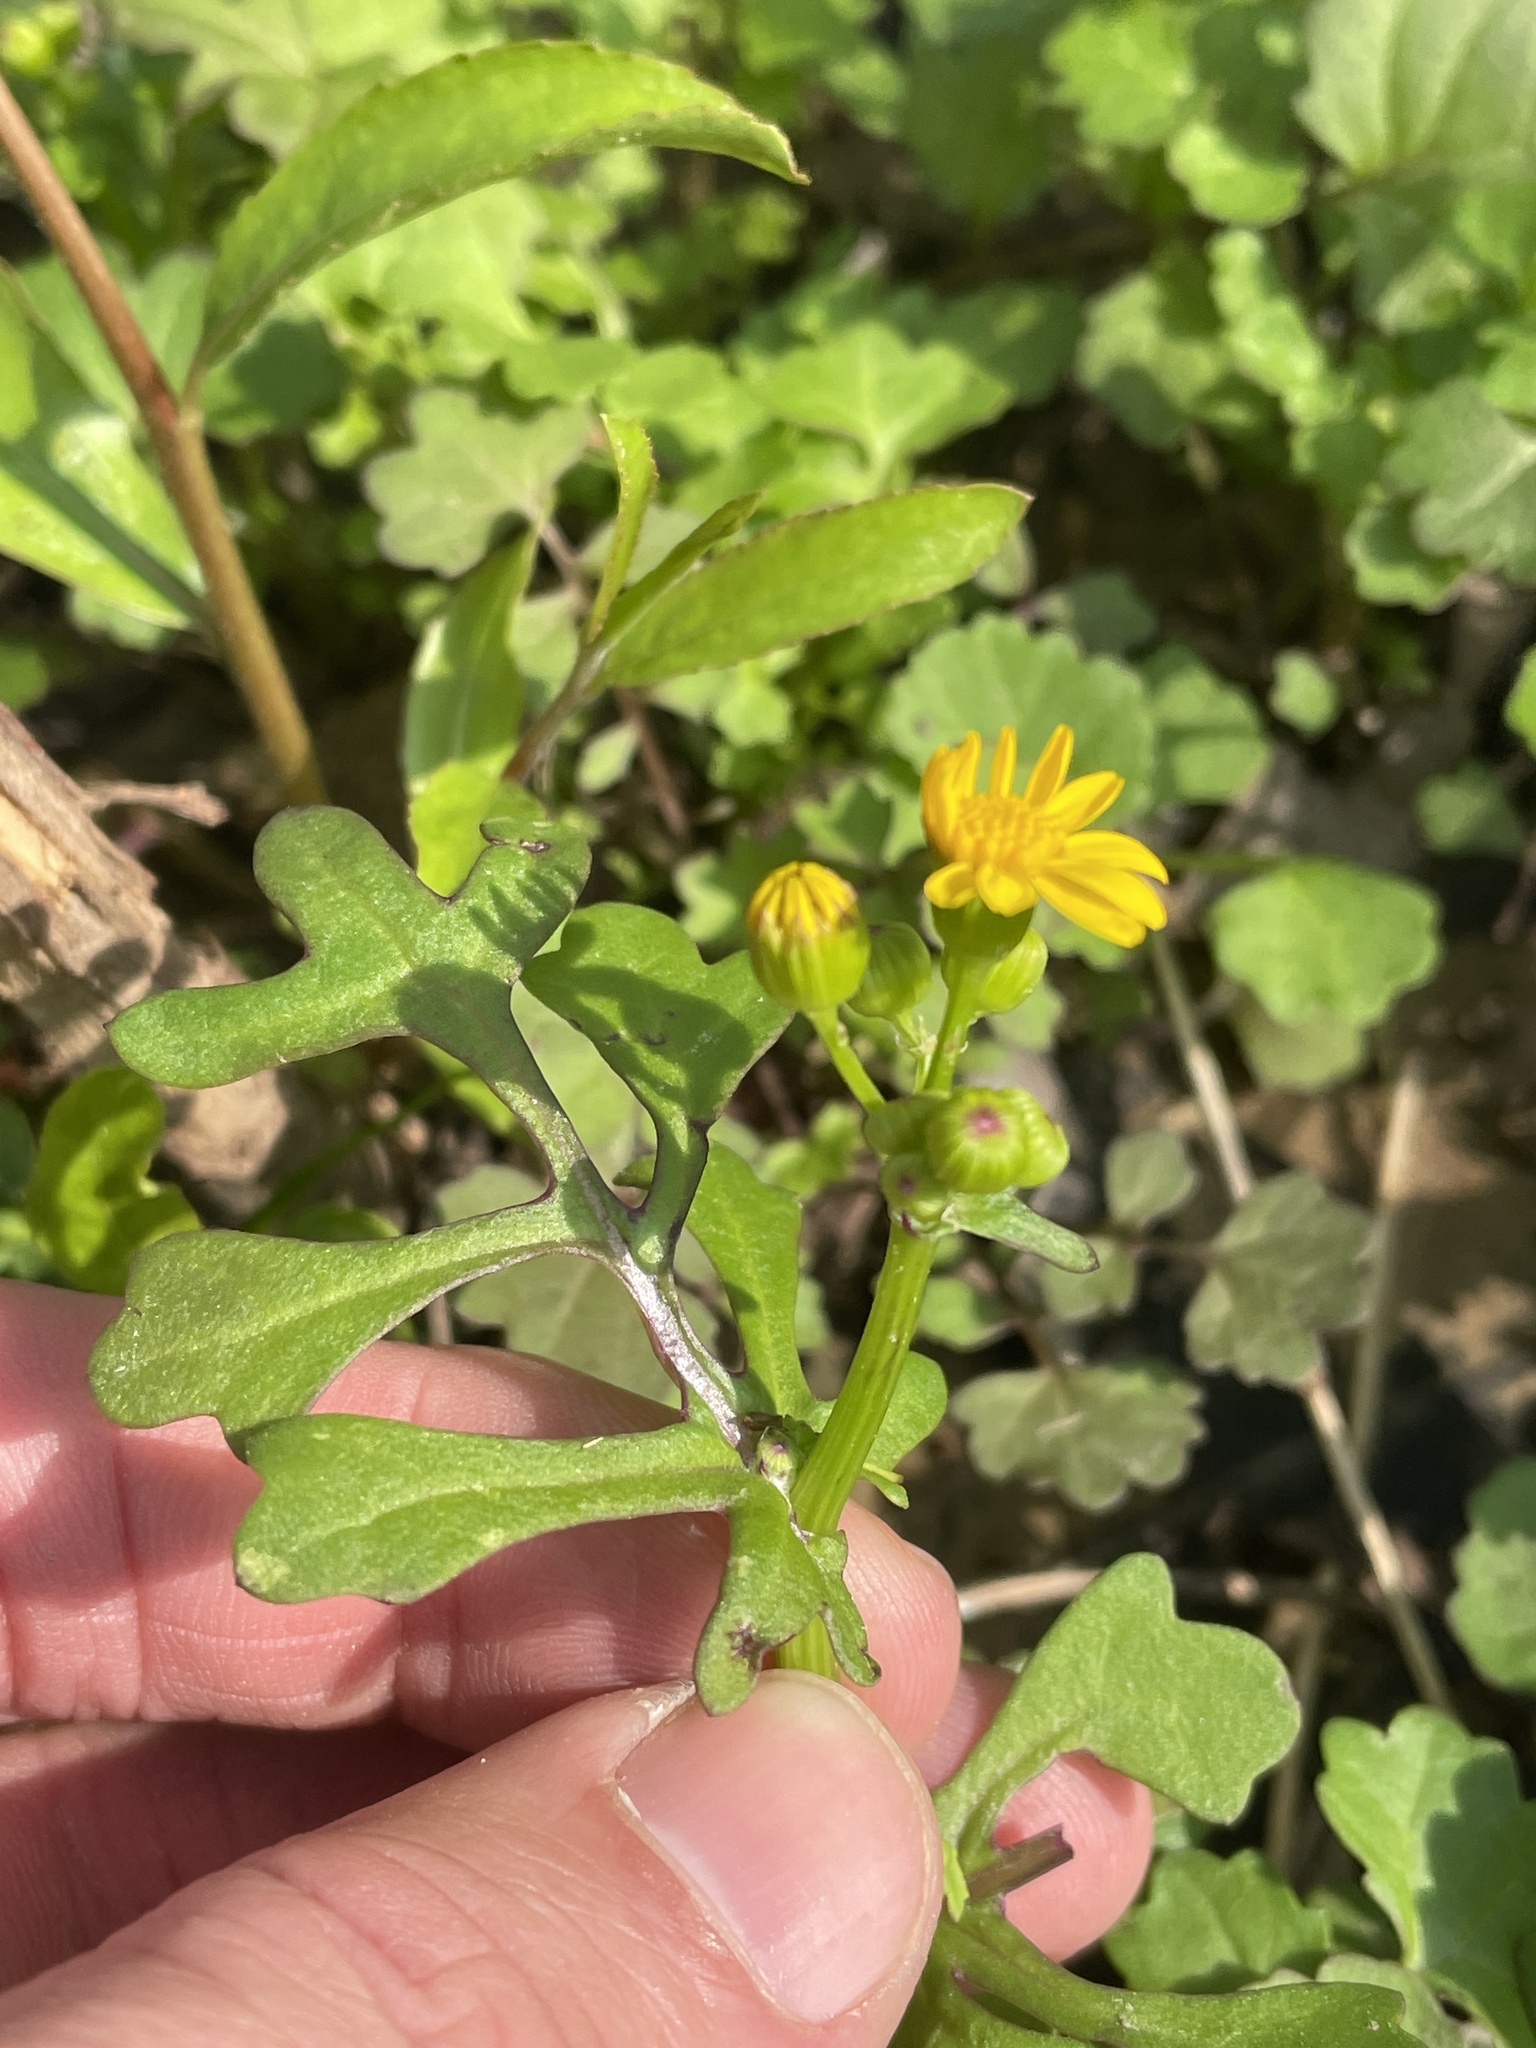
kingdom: Plantae
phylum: Tracheophyta
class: Magnoliopsida
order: Asterales
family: Asteraceae
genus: Packera
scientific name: Packera glabella
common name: Butterweed
